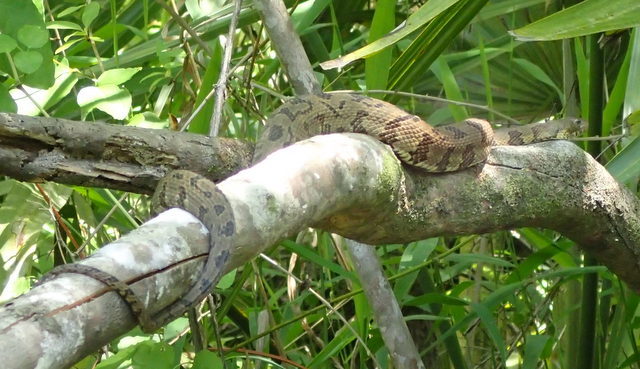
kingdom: Animalia
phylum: Chordata
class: Squamata
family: Colubridae
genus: Nerodia
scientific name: Nerodia taxispilota
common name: Brown water snake
